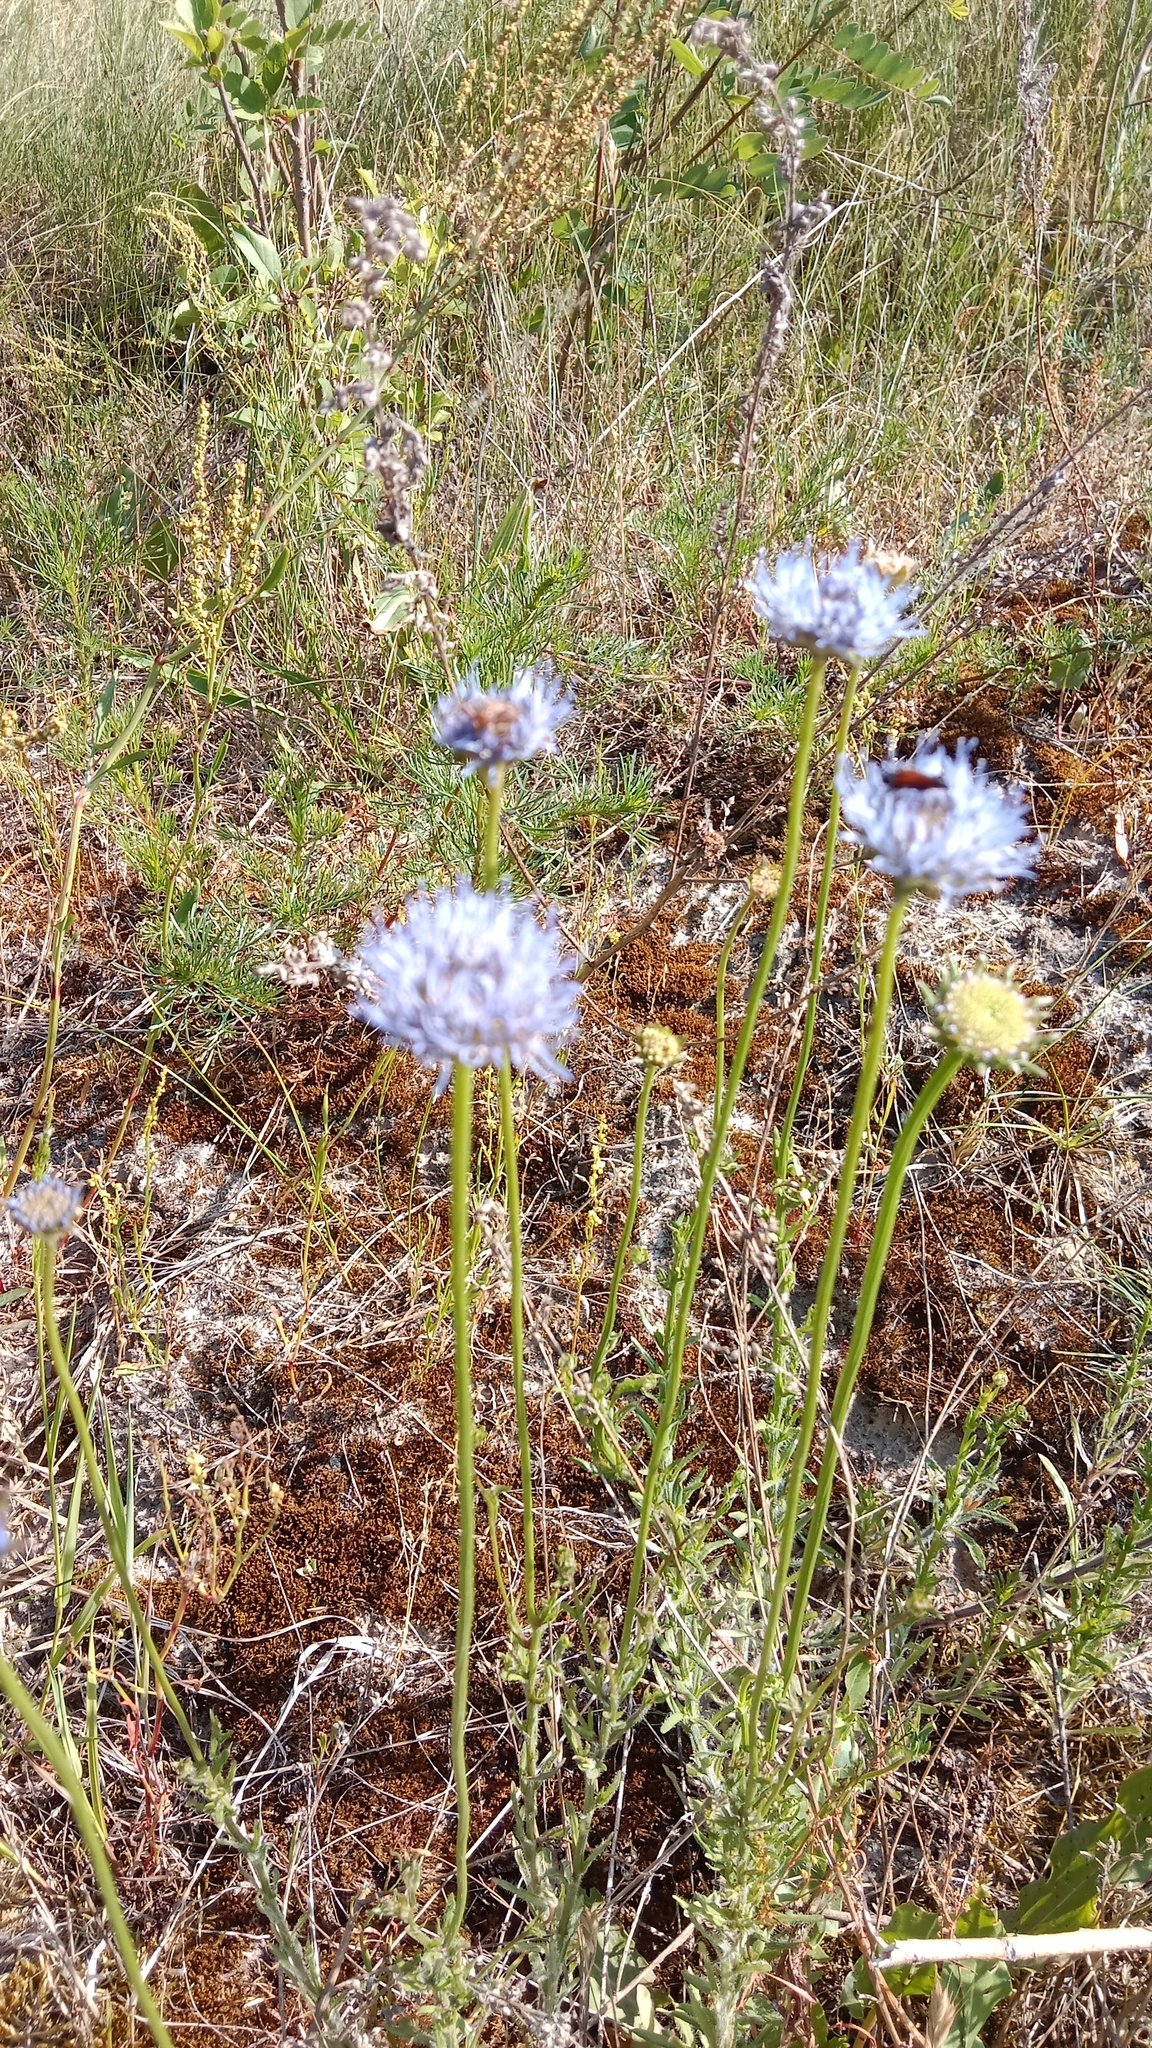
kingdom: Plantae
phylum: Tracheophyta
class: Magnoliopsida
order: Asterales
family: Campanulaceae
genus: Jasione
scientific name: Jasione montana
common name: Sheep's-bit
